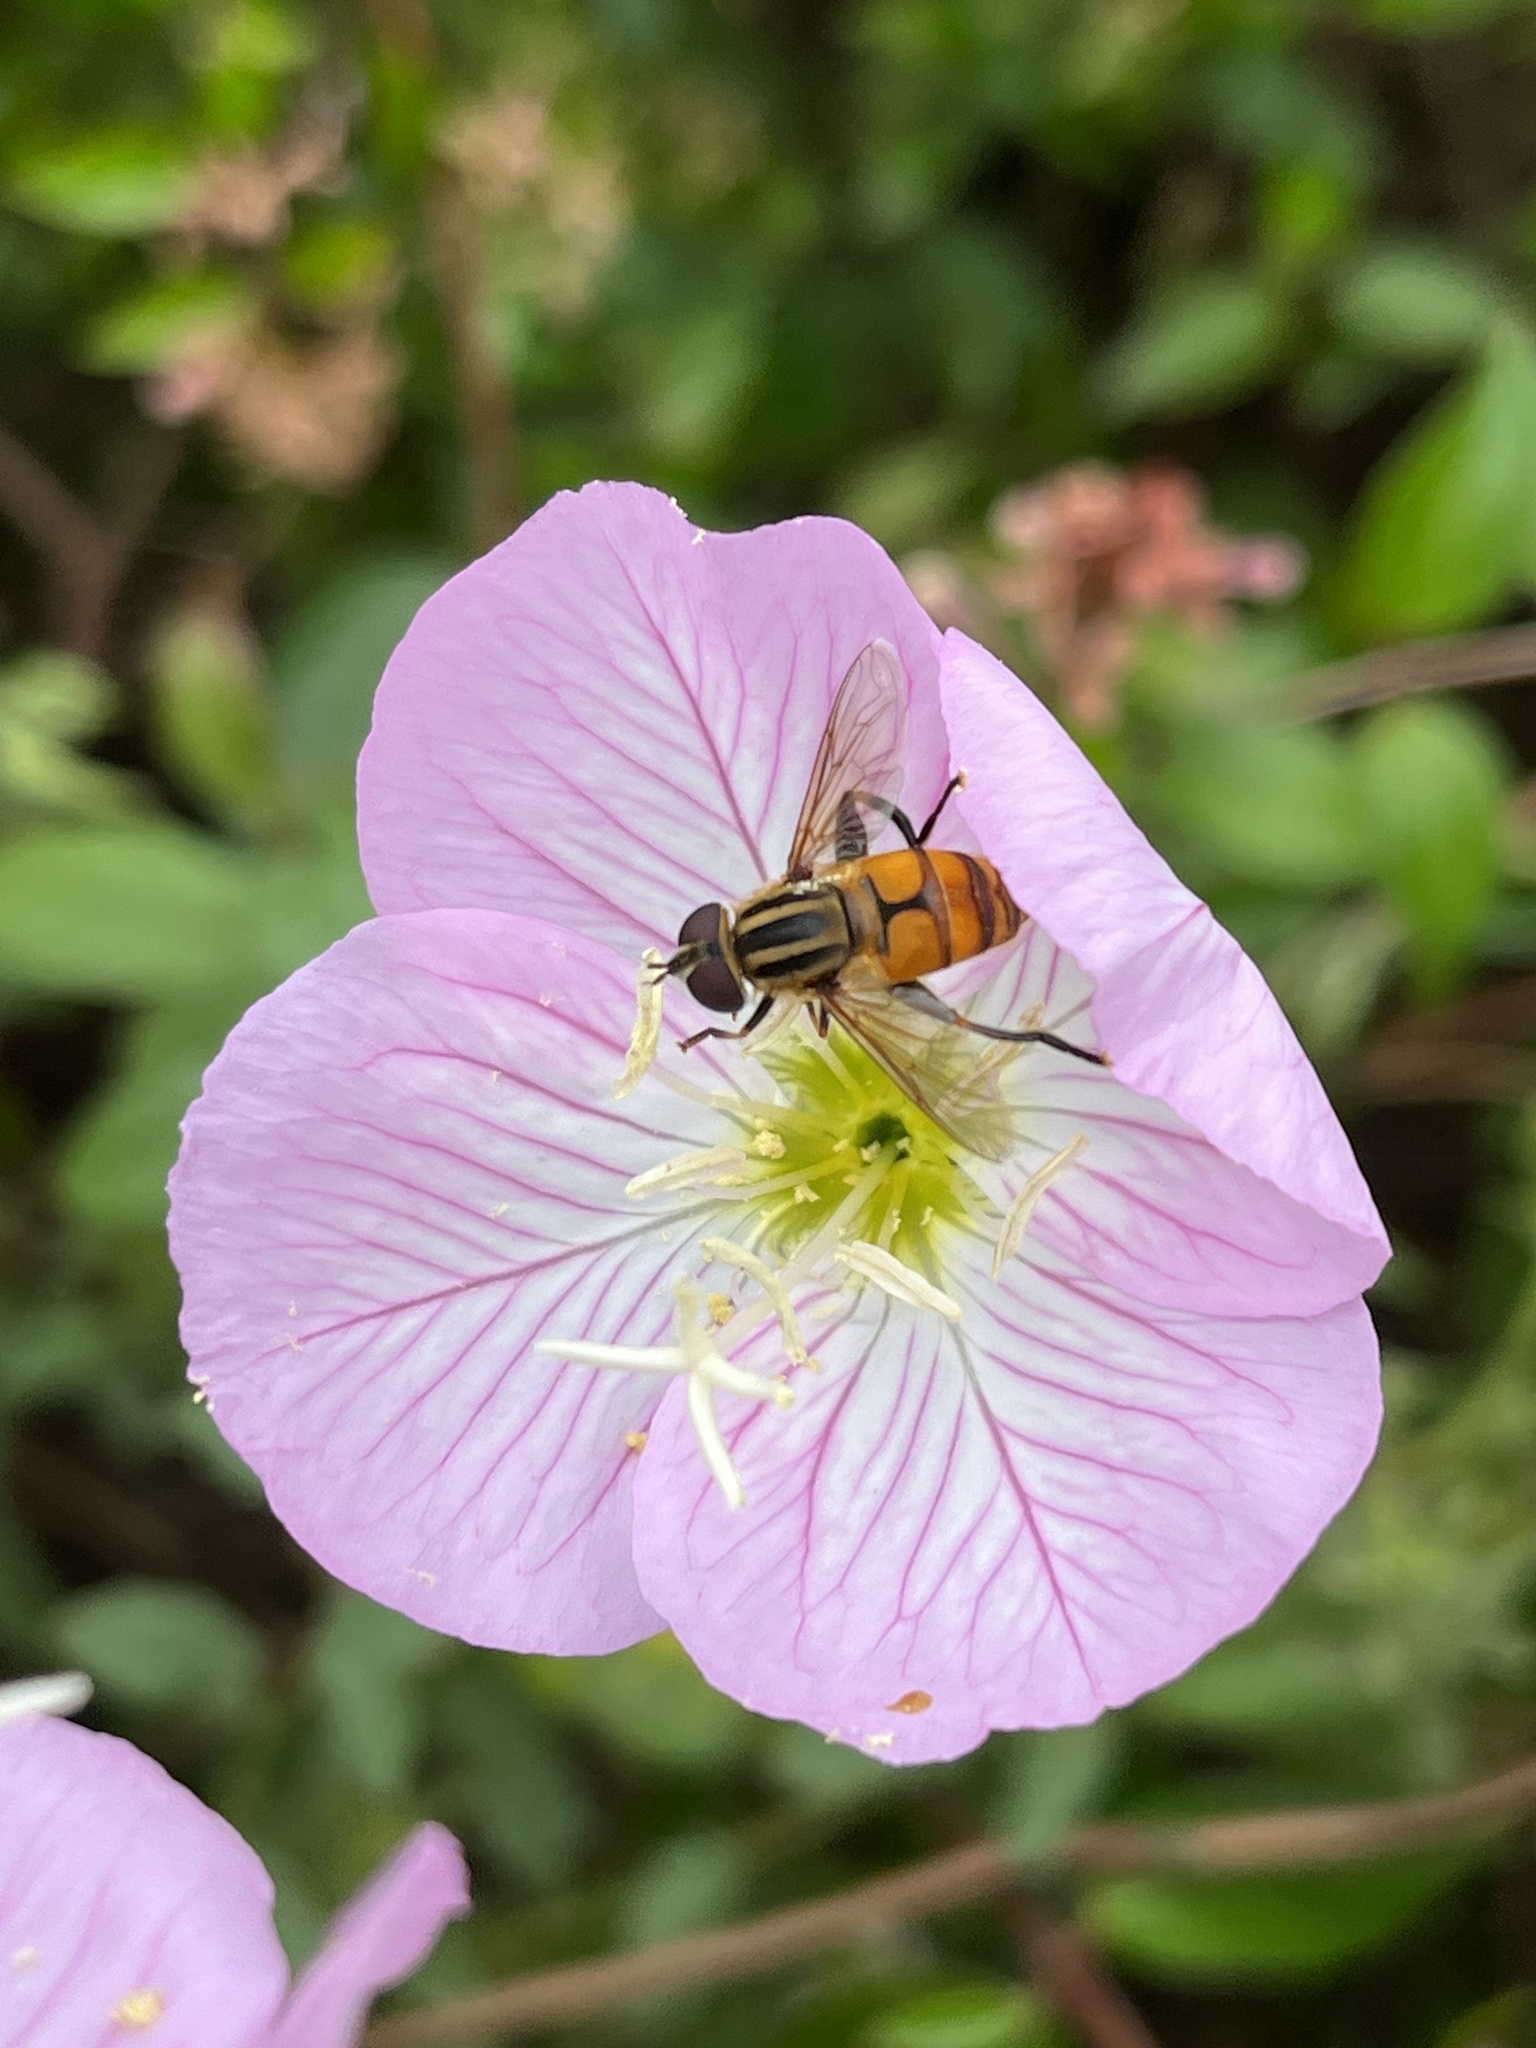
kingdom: Animalia
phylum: Arthropoda
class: Insecta
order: Diptera
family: Syrphidae
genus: Mesembrius
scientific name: Mesembrius bengalensis
